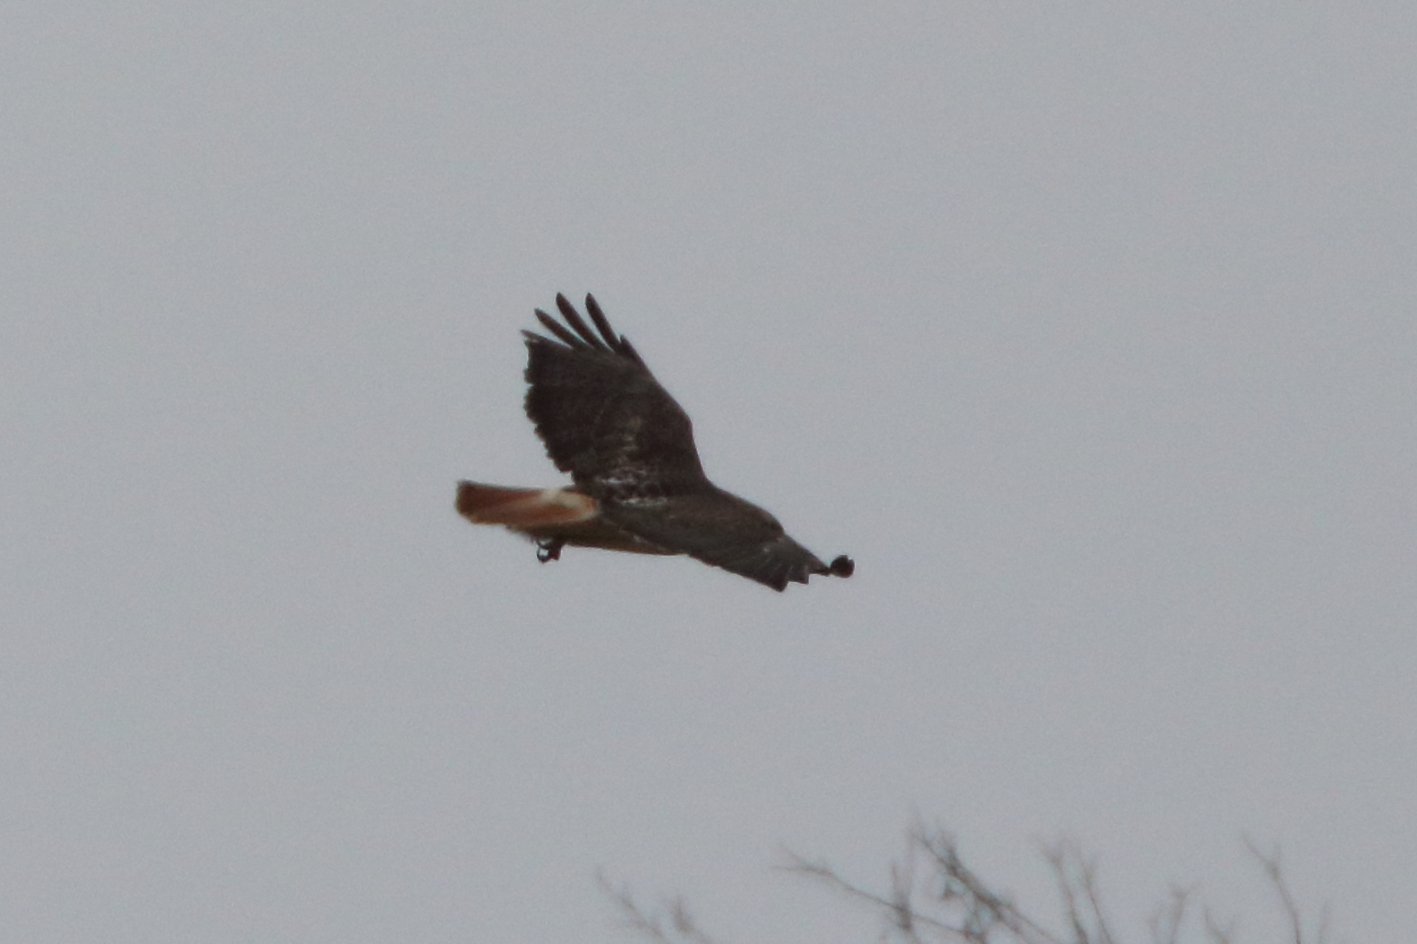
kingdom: Animalia
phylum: Chordata
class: Aves
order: Accipitriformes
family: Accipitridae
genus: Buteo
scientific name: Buteo jamaicensis
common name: Red-tailed hawk
